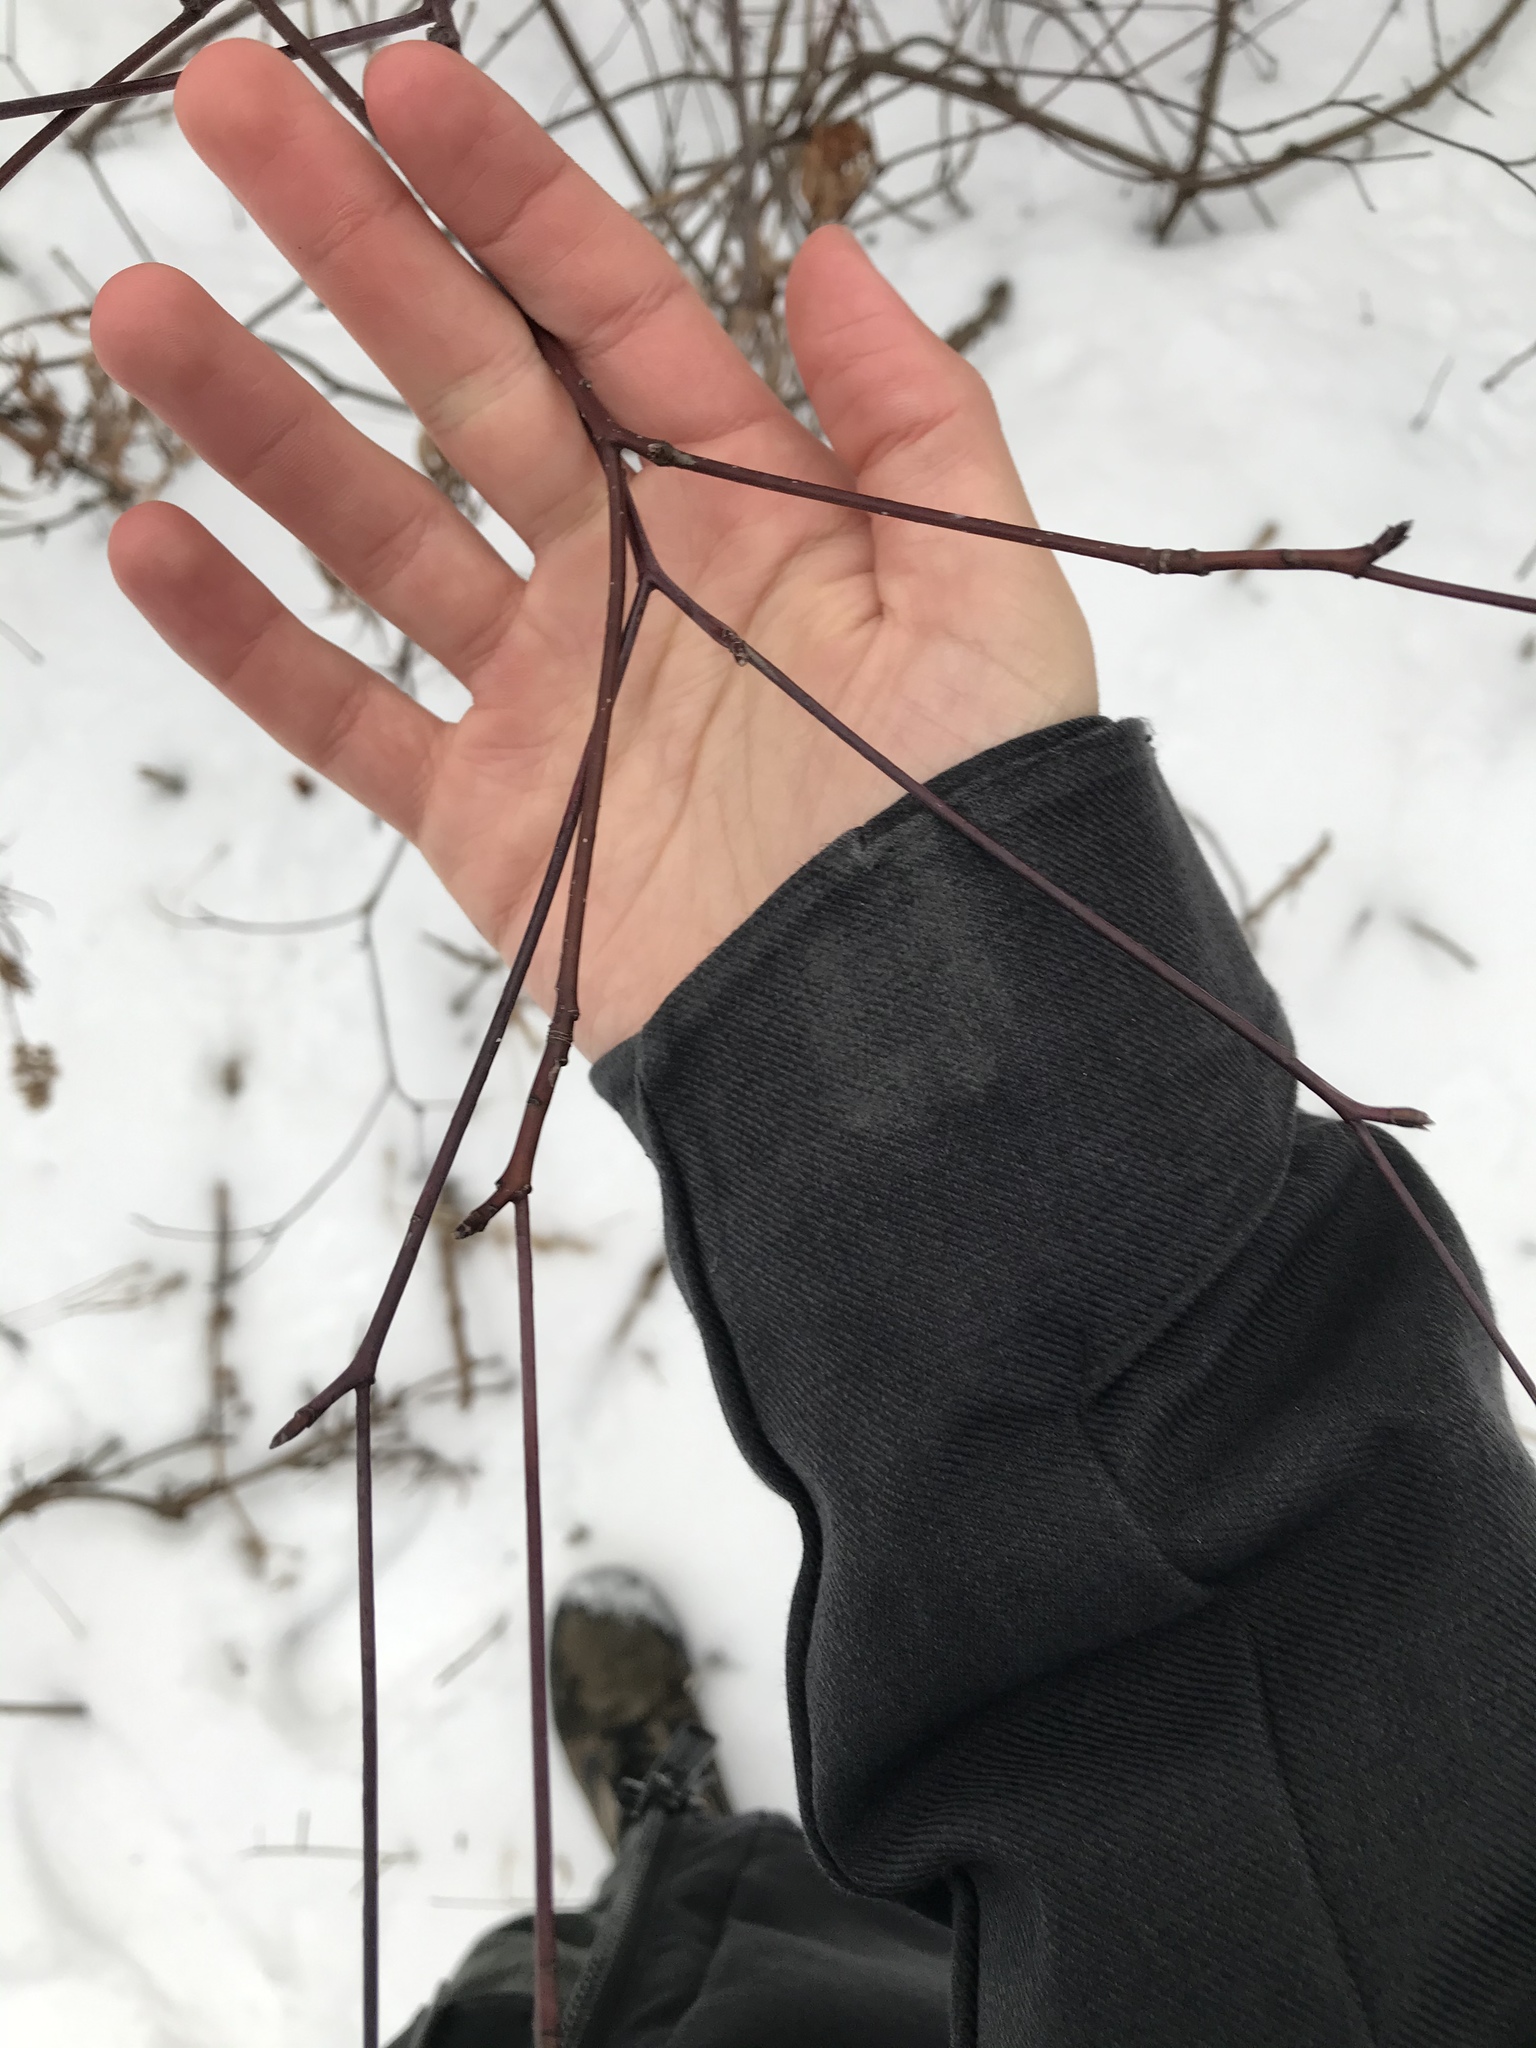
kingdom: Plantae
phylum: Tracheophyta
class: Magnoliopsida
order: Cornales
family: Cornaceae
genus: Cornus
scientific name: Cornus alternifolia
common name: Pagoda dogwood
